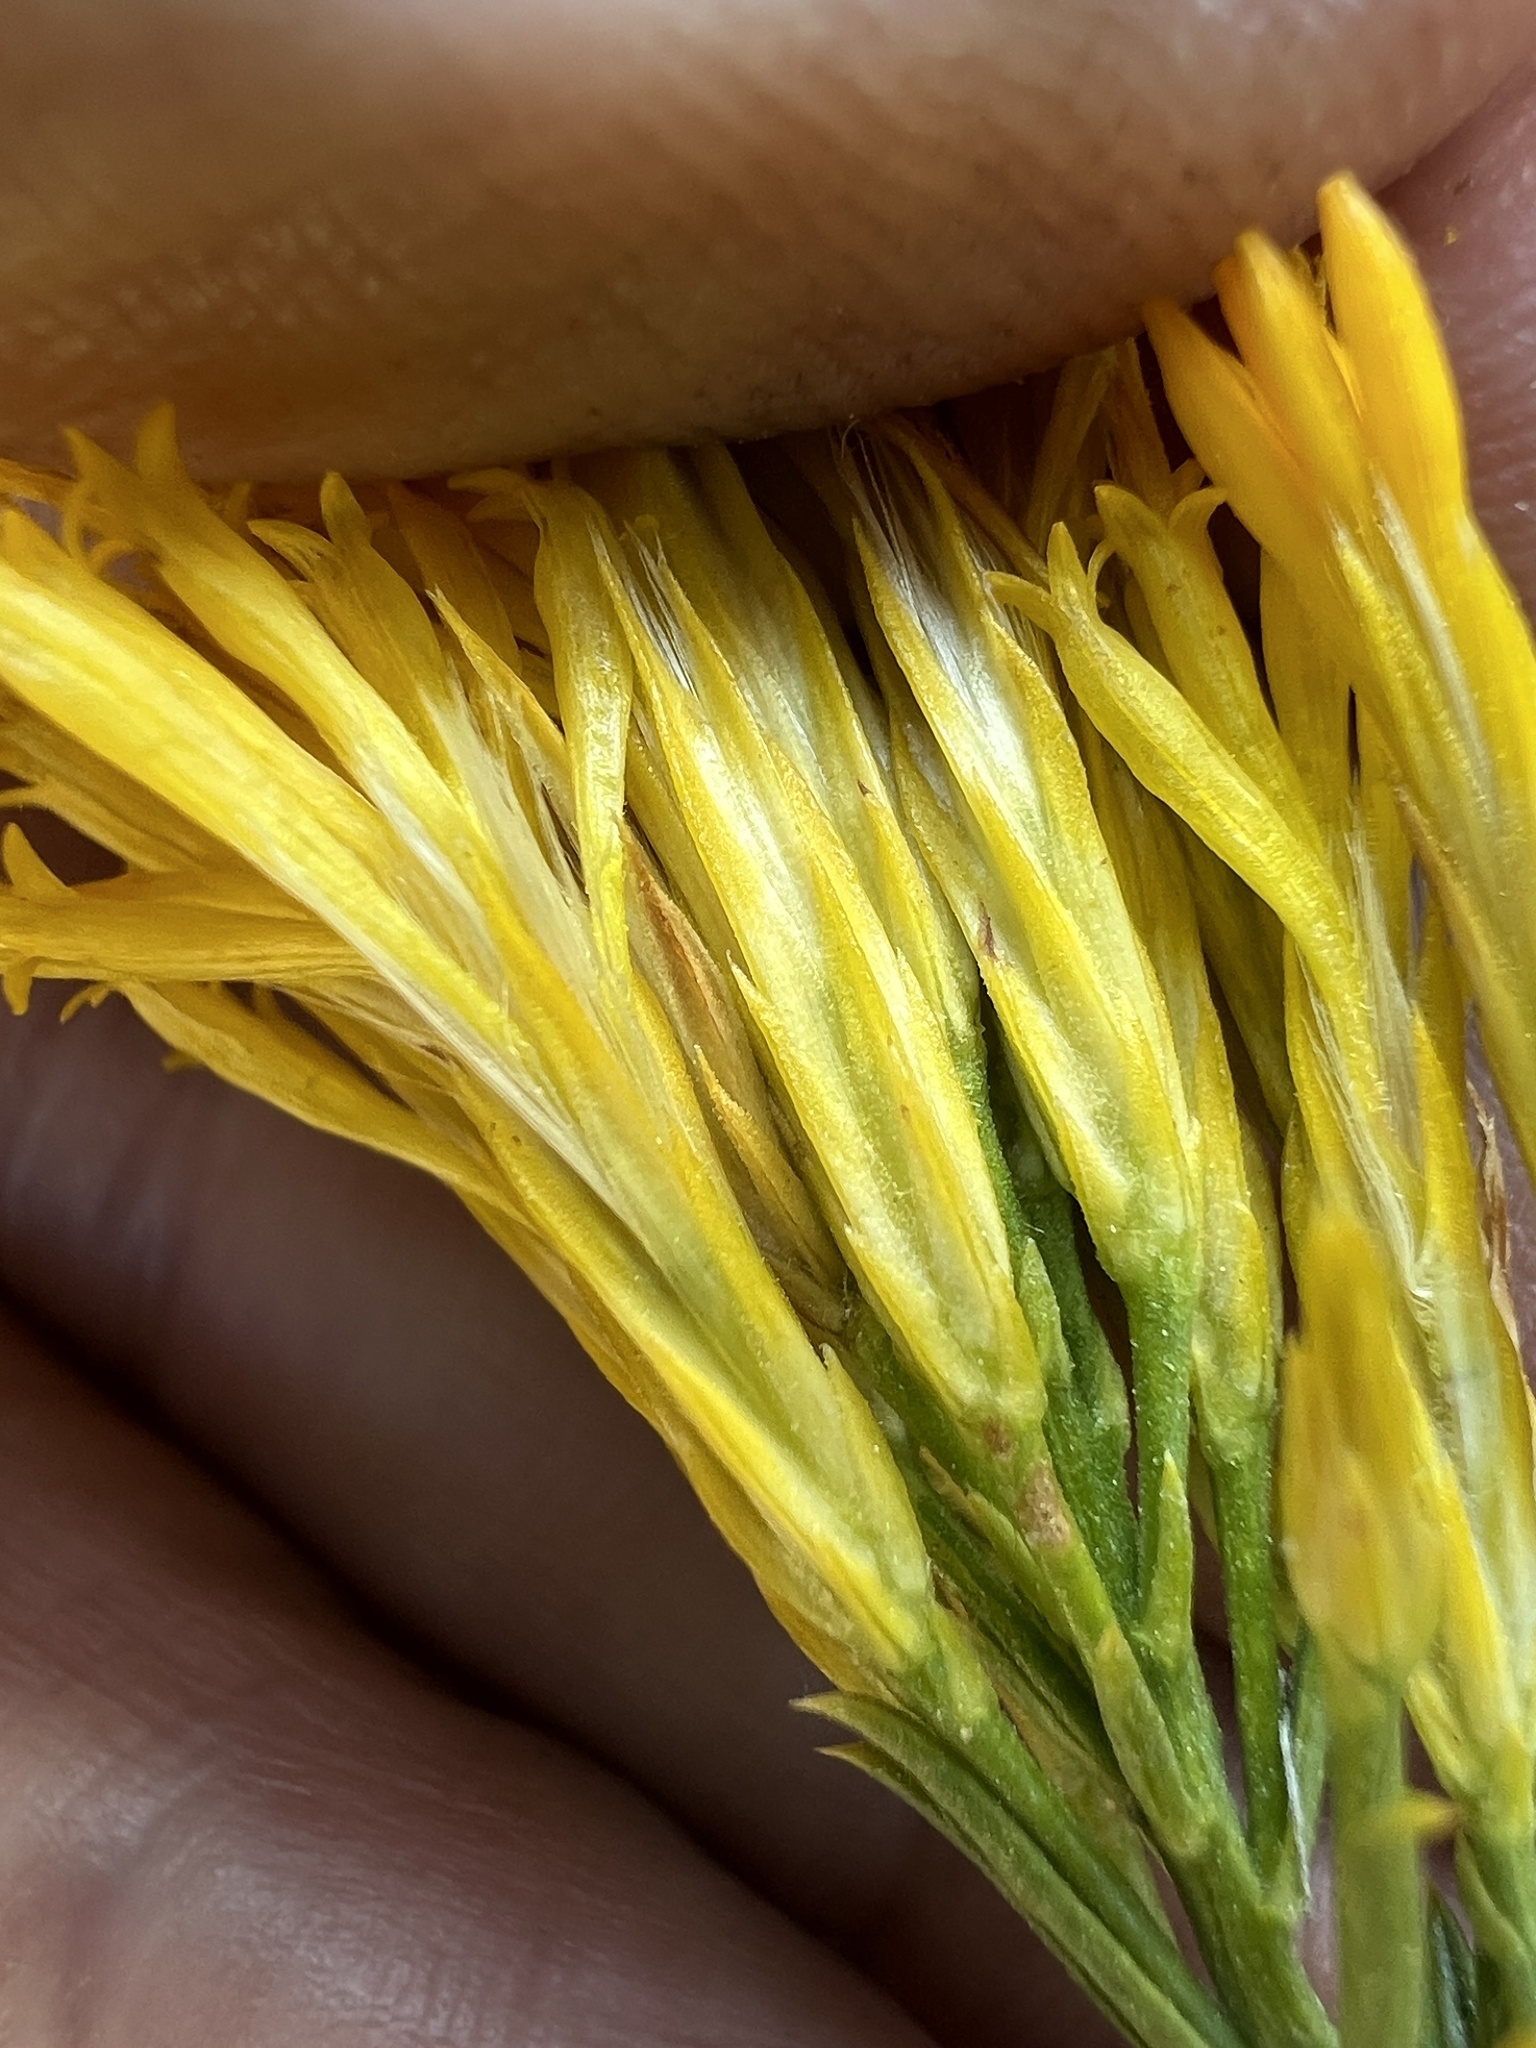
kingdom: Plantae
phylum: Tracheophyta
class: Magnoliopsida
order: Asterales
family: Asteraceae
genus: Ericameria
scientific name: Ericameria nauseosa
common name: Rubber rabbitbrush
